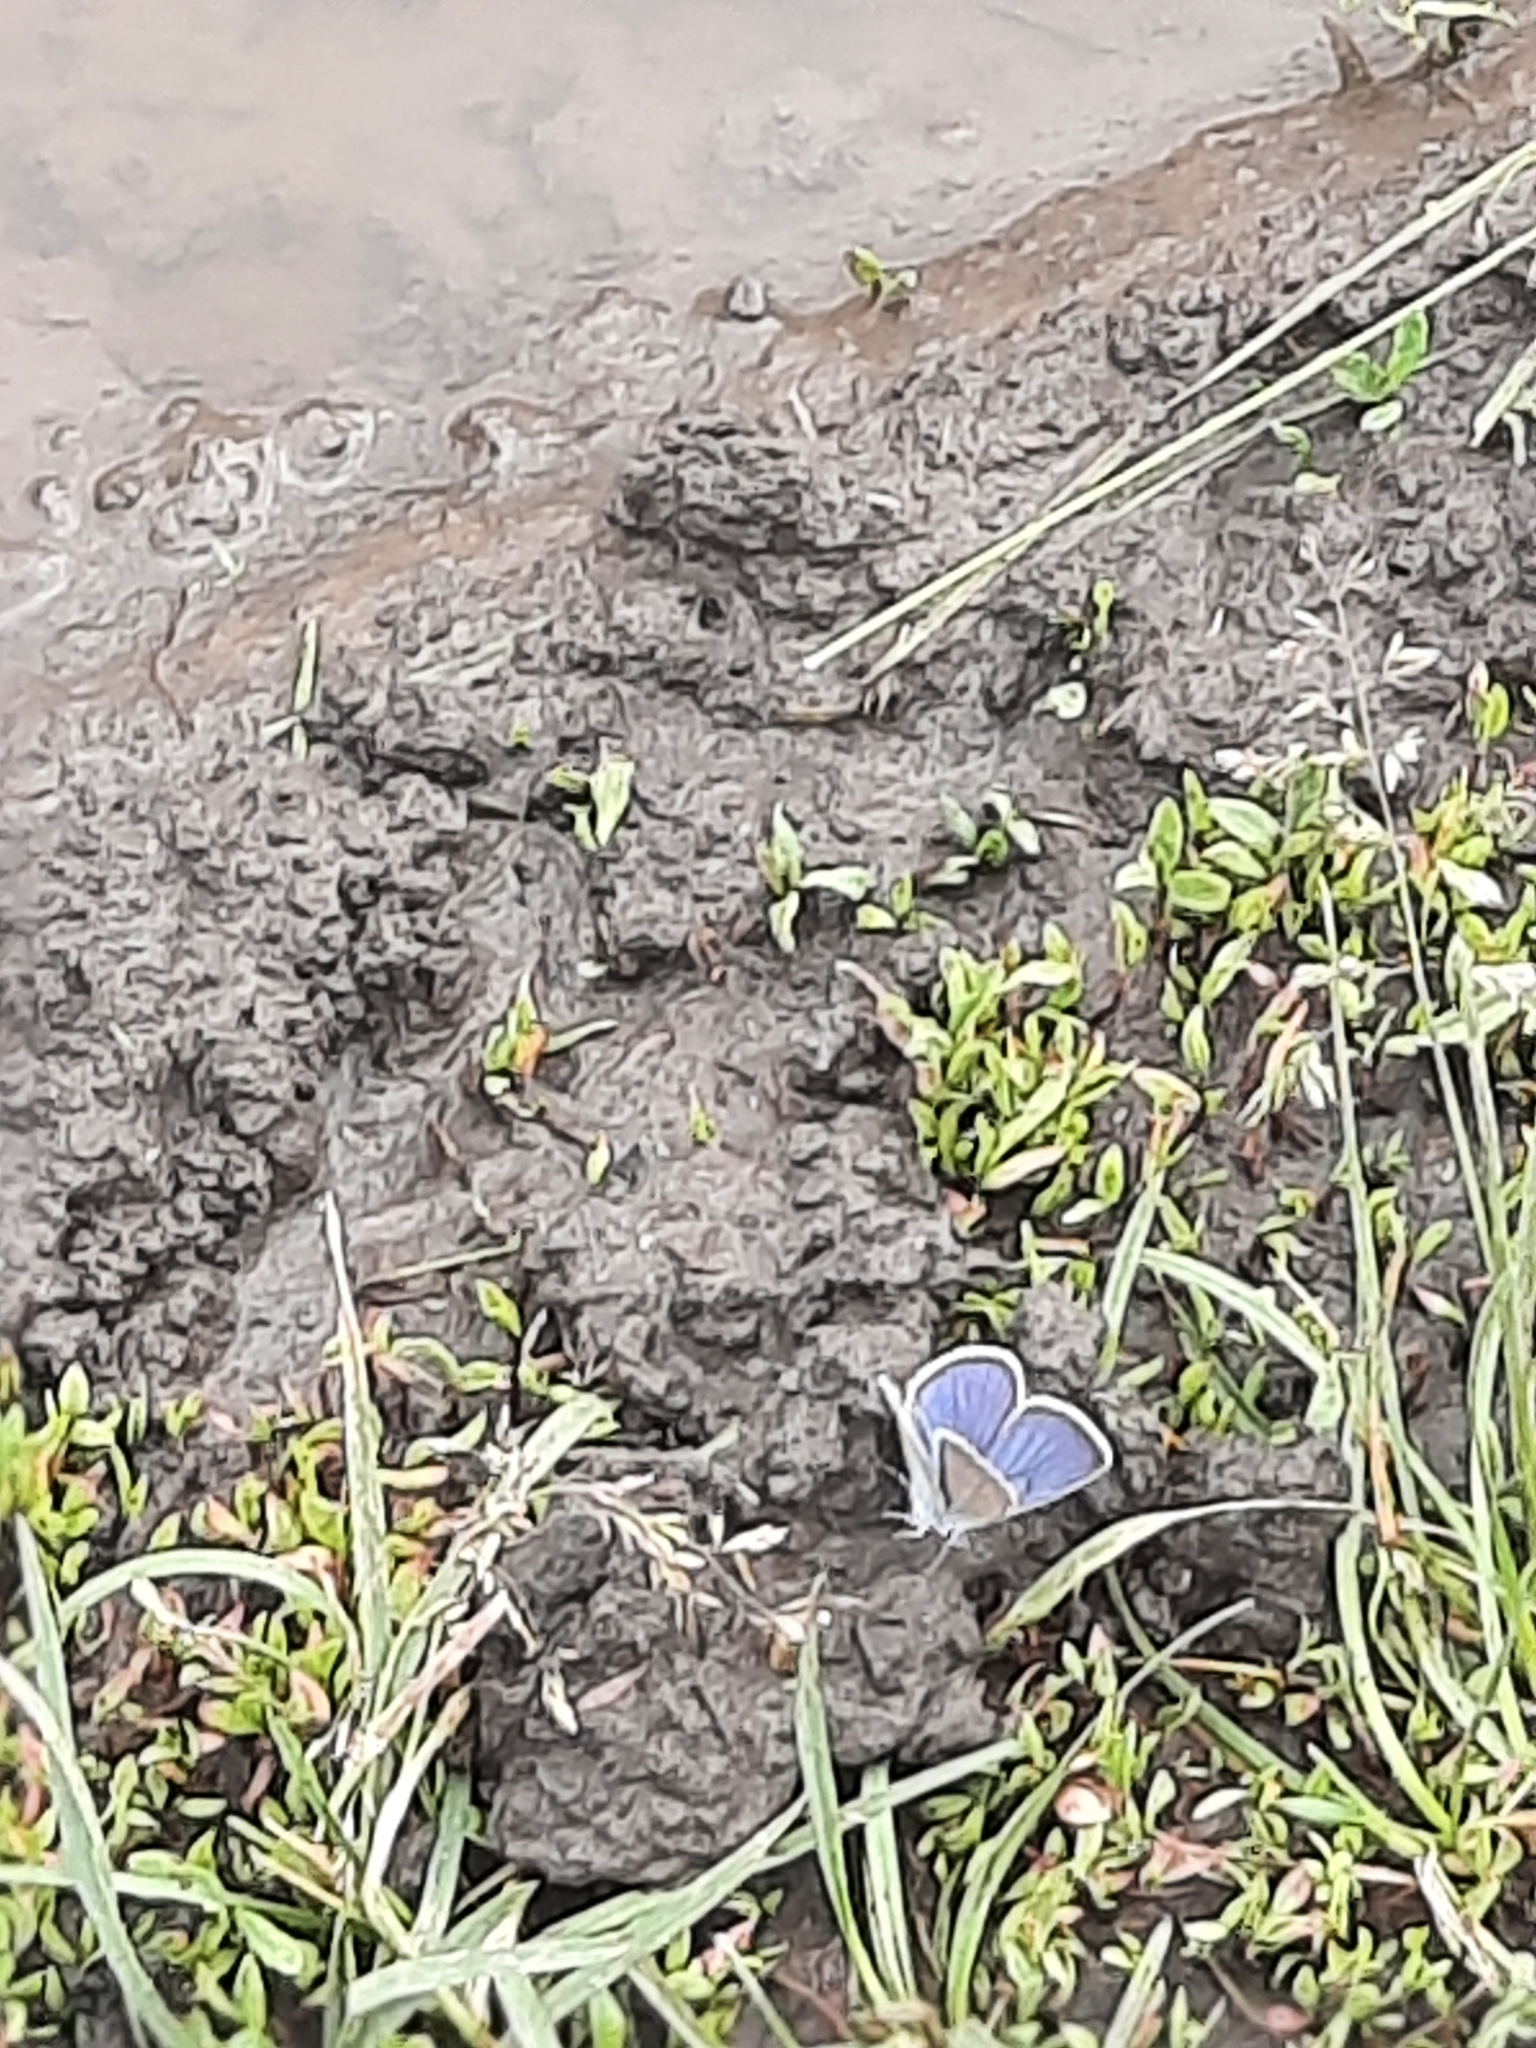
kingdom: Animalia
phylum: Arthropoda
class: Insecta
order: Lepidoptera
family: Lycaenidae
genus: Cyaniris
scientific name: Cyaniris semiargus
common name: Mazarine blue
